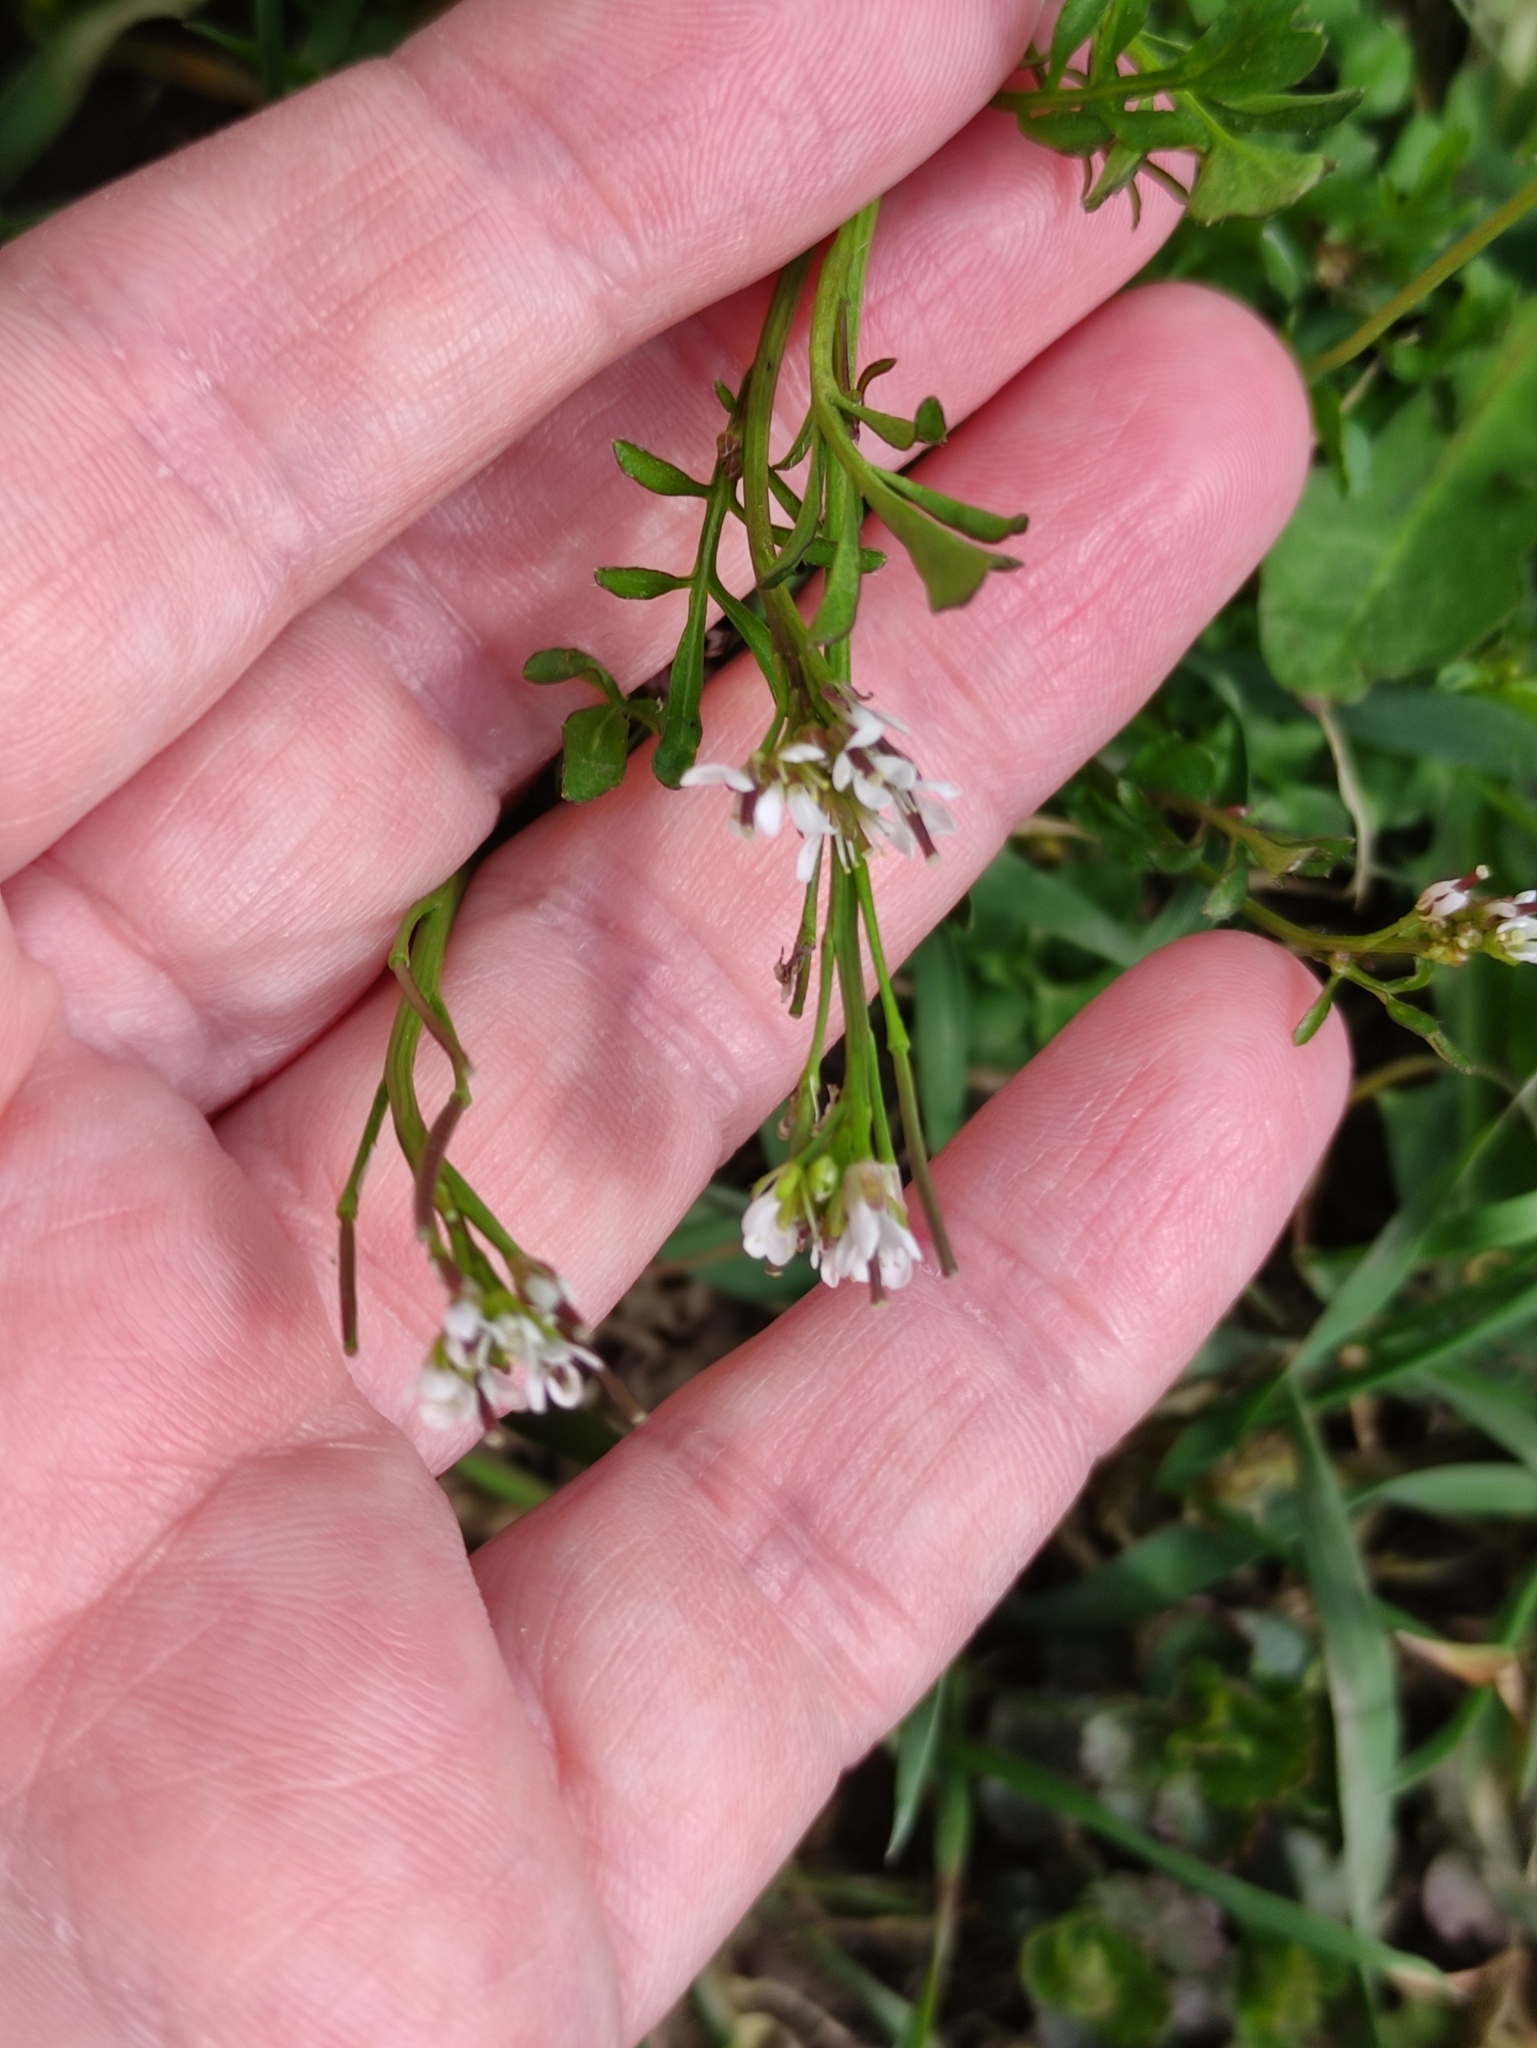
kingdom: Plantae
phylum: Tracheophyta
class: Magnoliopsida
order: Brassicales
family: Brassicaceae
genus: Cardamine
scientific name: Cardamine hirsuta
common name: Hairy bittercress
